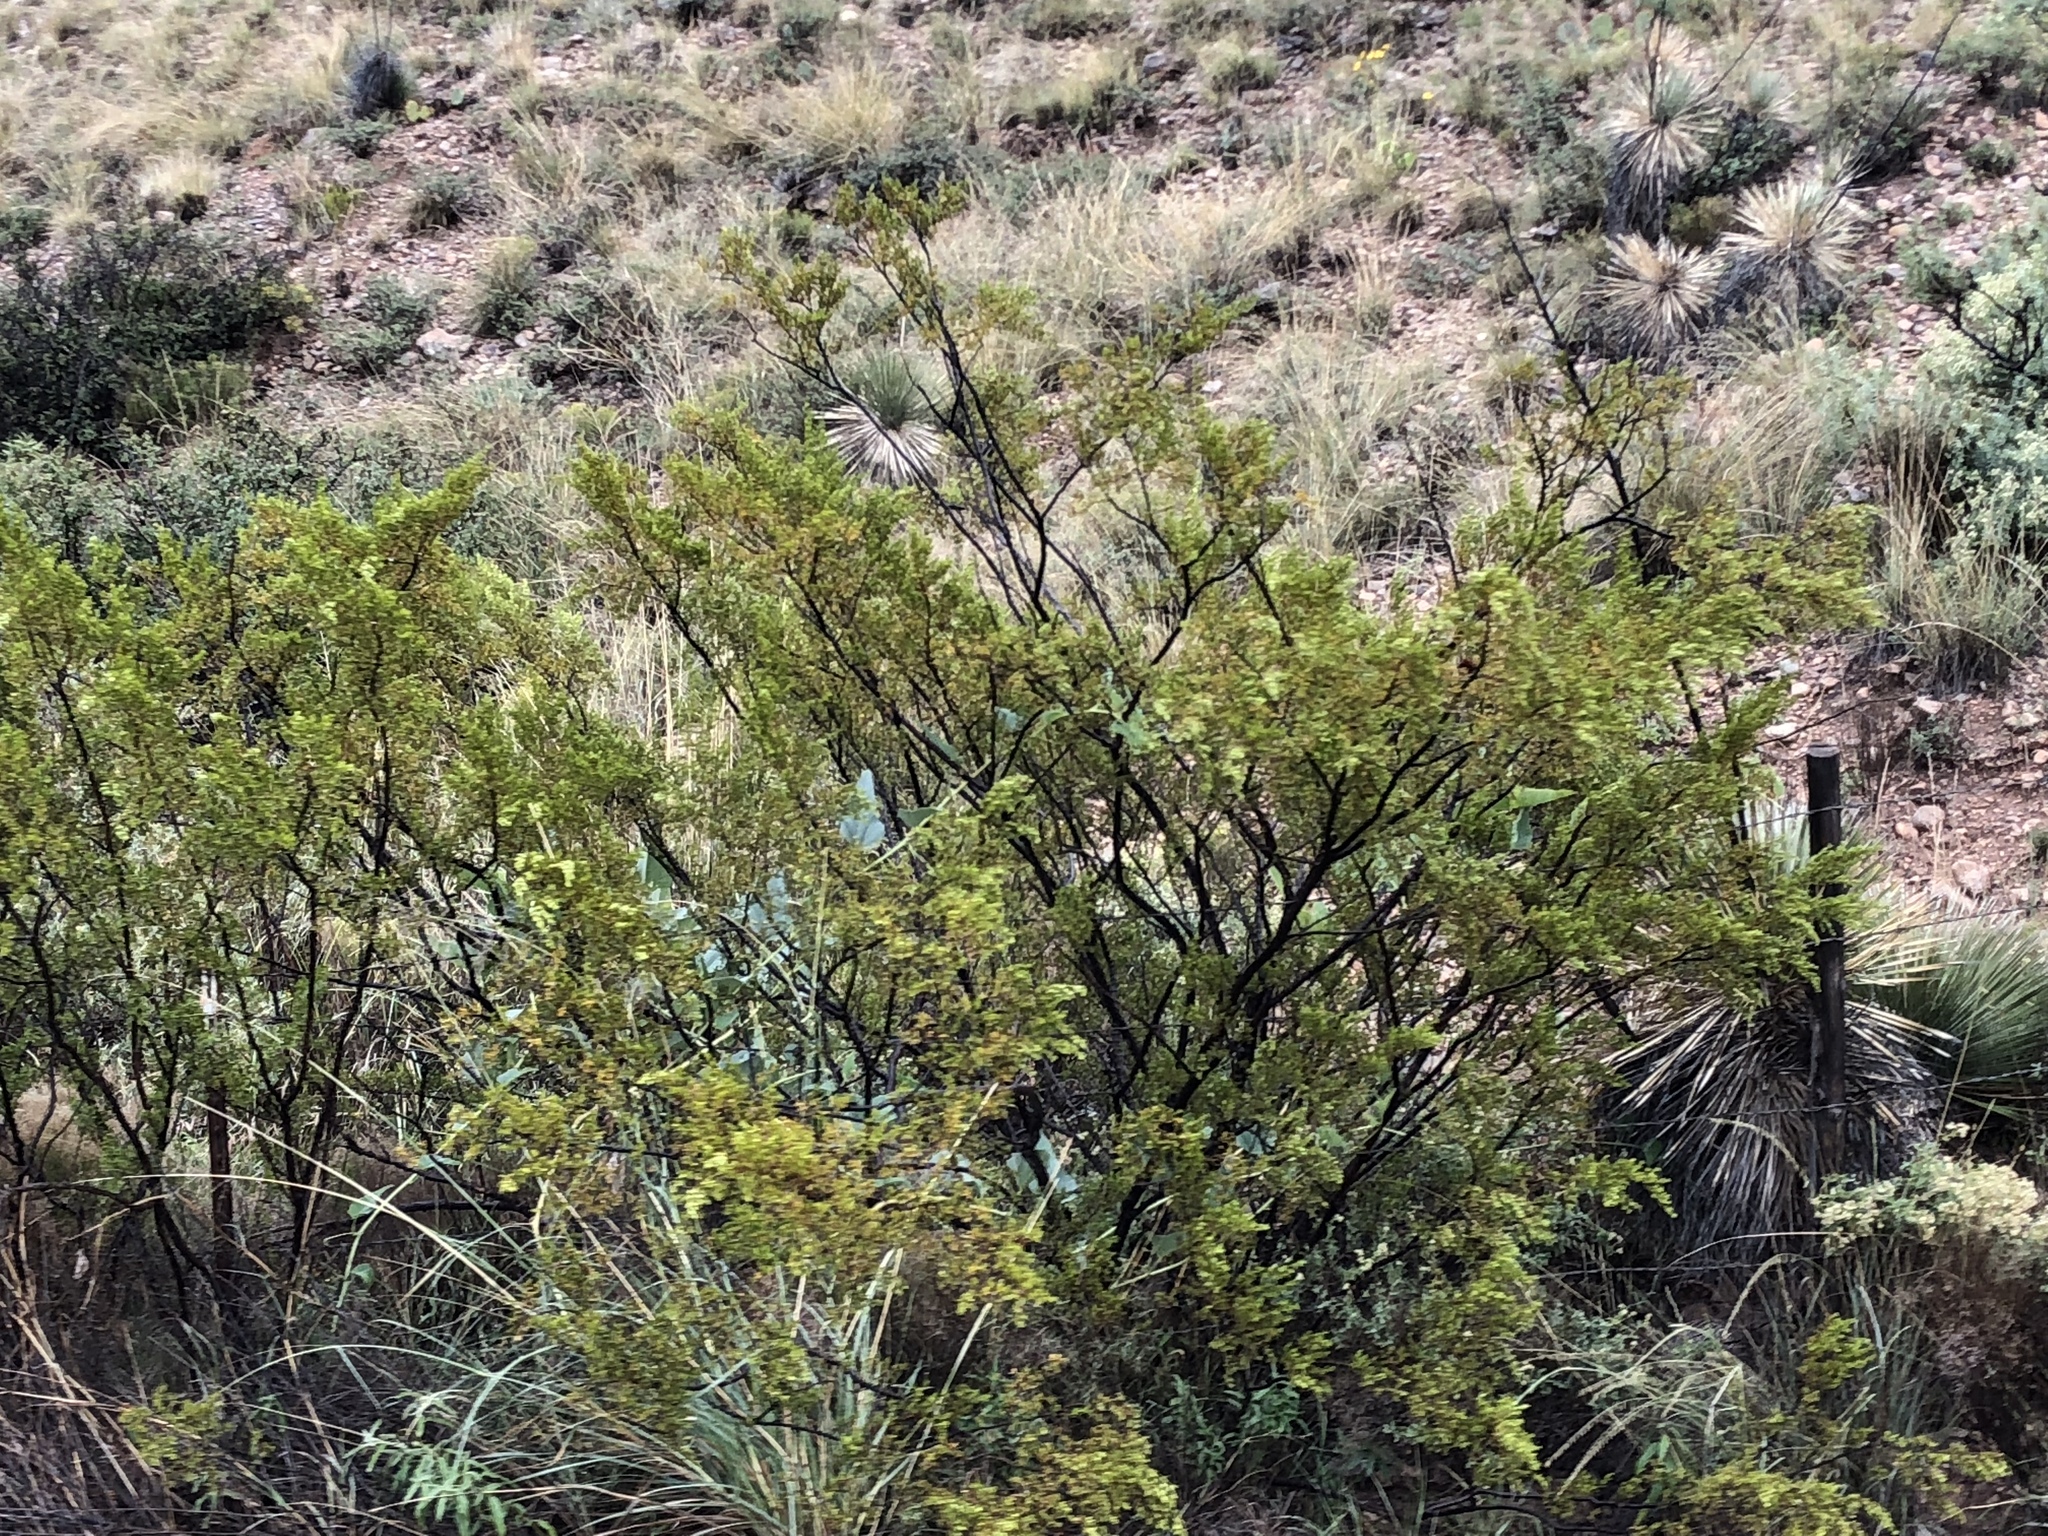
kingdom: Plantae
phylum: Tracheophyta
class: Magnoliopsida
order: Zygophyllales
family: Zygophyllaceae
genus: Larrea
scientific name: Larrea tridentata
